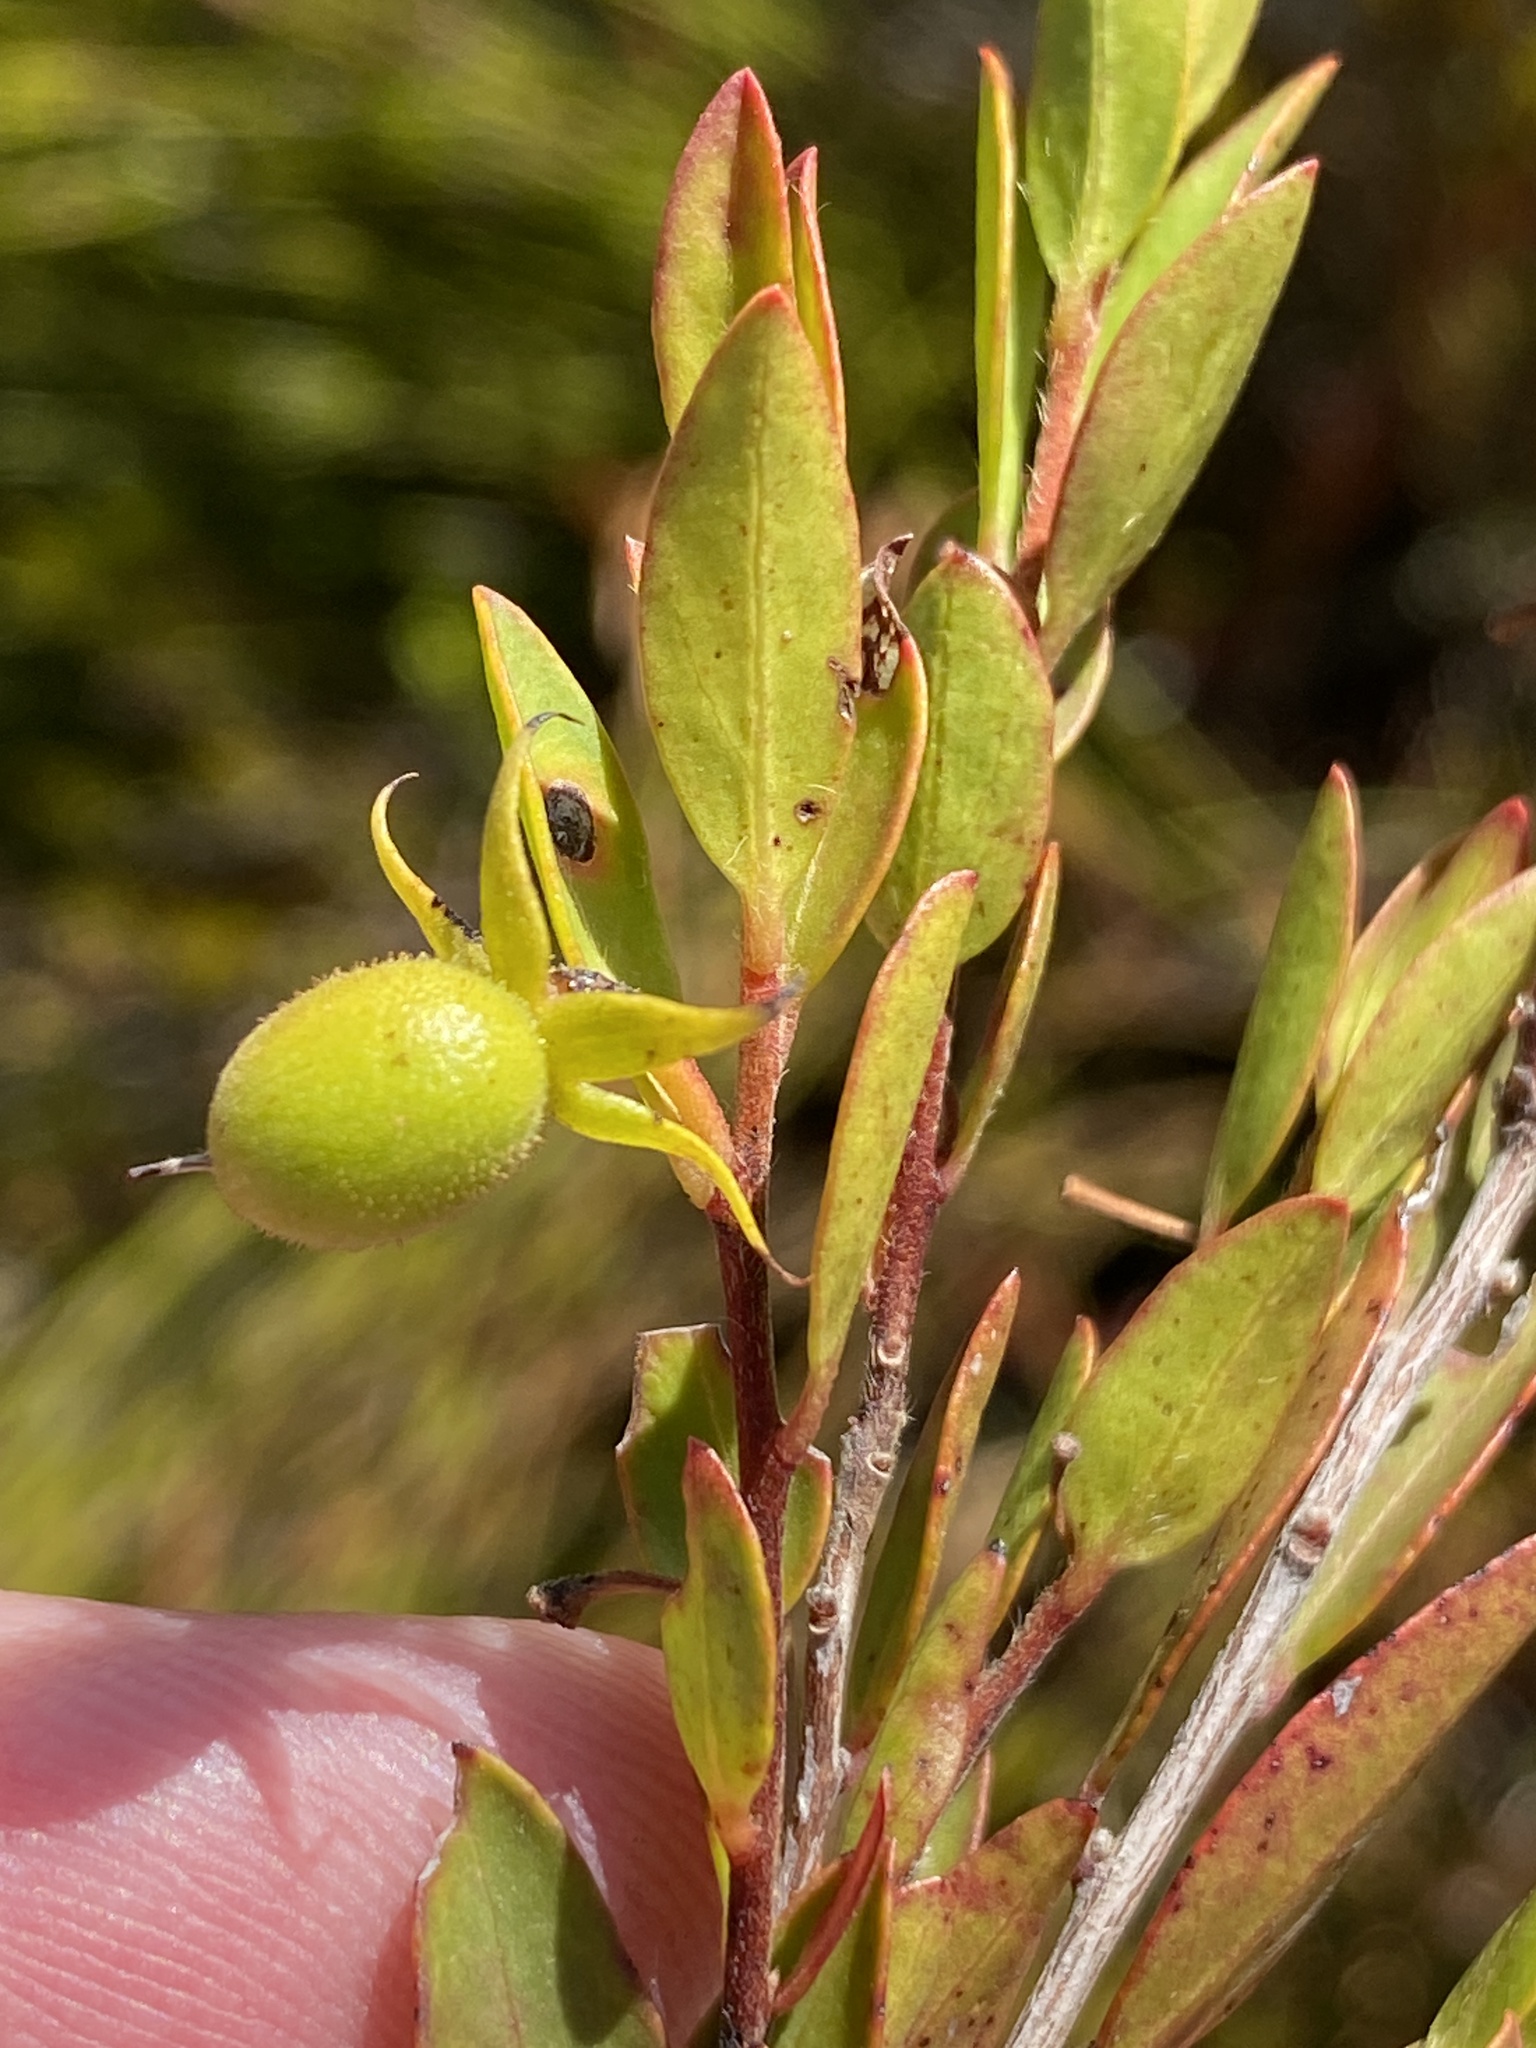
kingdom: Plantae
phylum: Tracheophyta
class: Magnoliopsida
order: Ericales
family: Ebenaceae
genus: Diospyros
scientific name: Diospyros glabra
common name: Fynbos star apple
